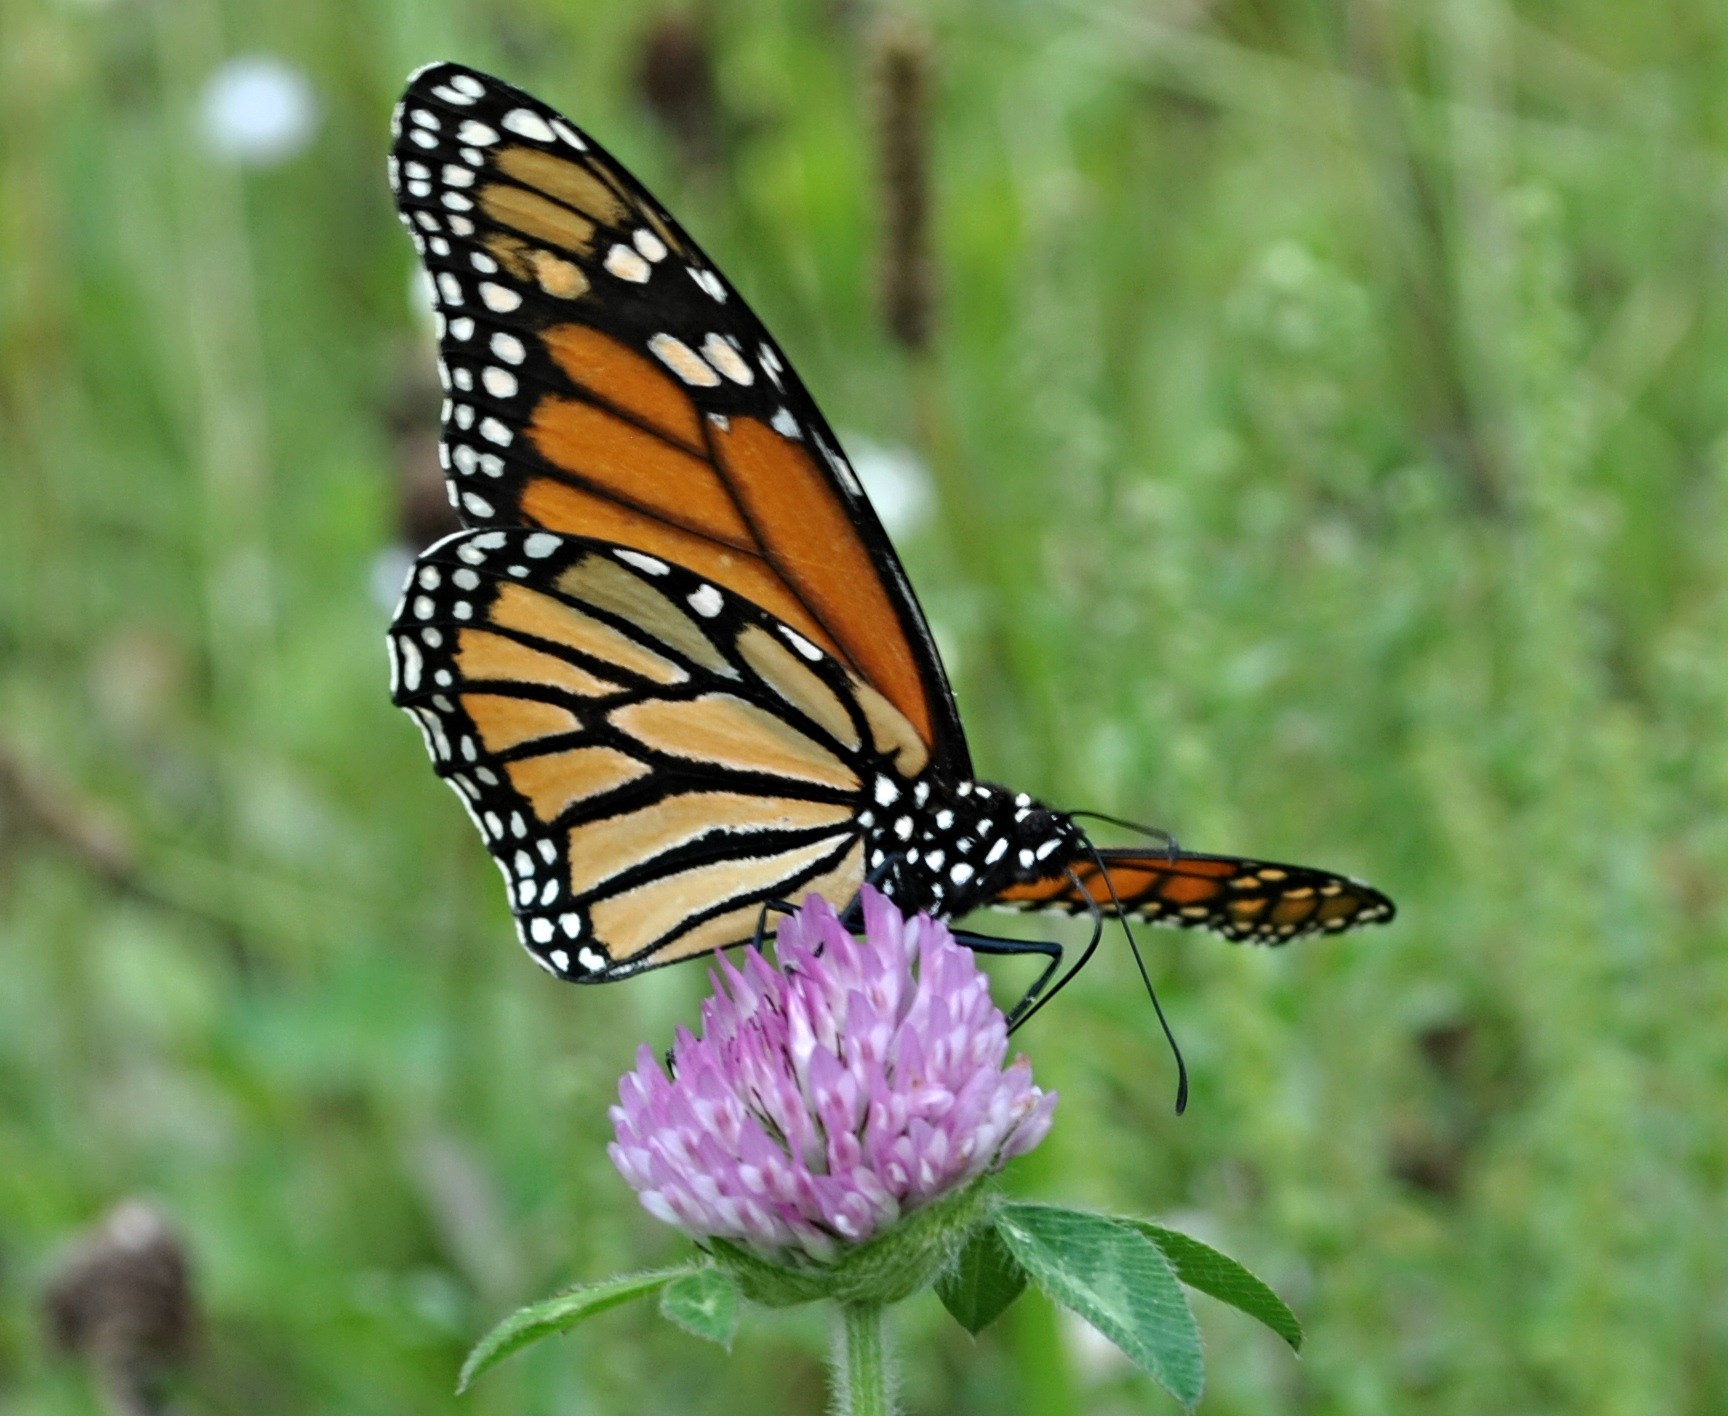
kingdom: Animalia
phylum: Arthropoda
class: Insecta
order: Lepidoptera
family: Nymphalidae
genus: Danaus
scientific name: Danaus plexippus
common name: Monarch
